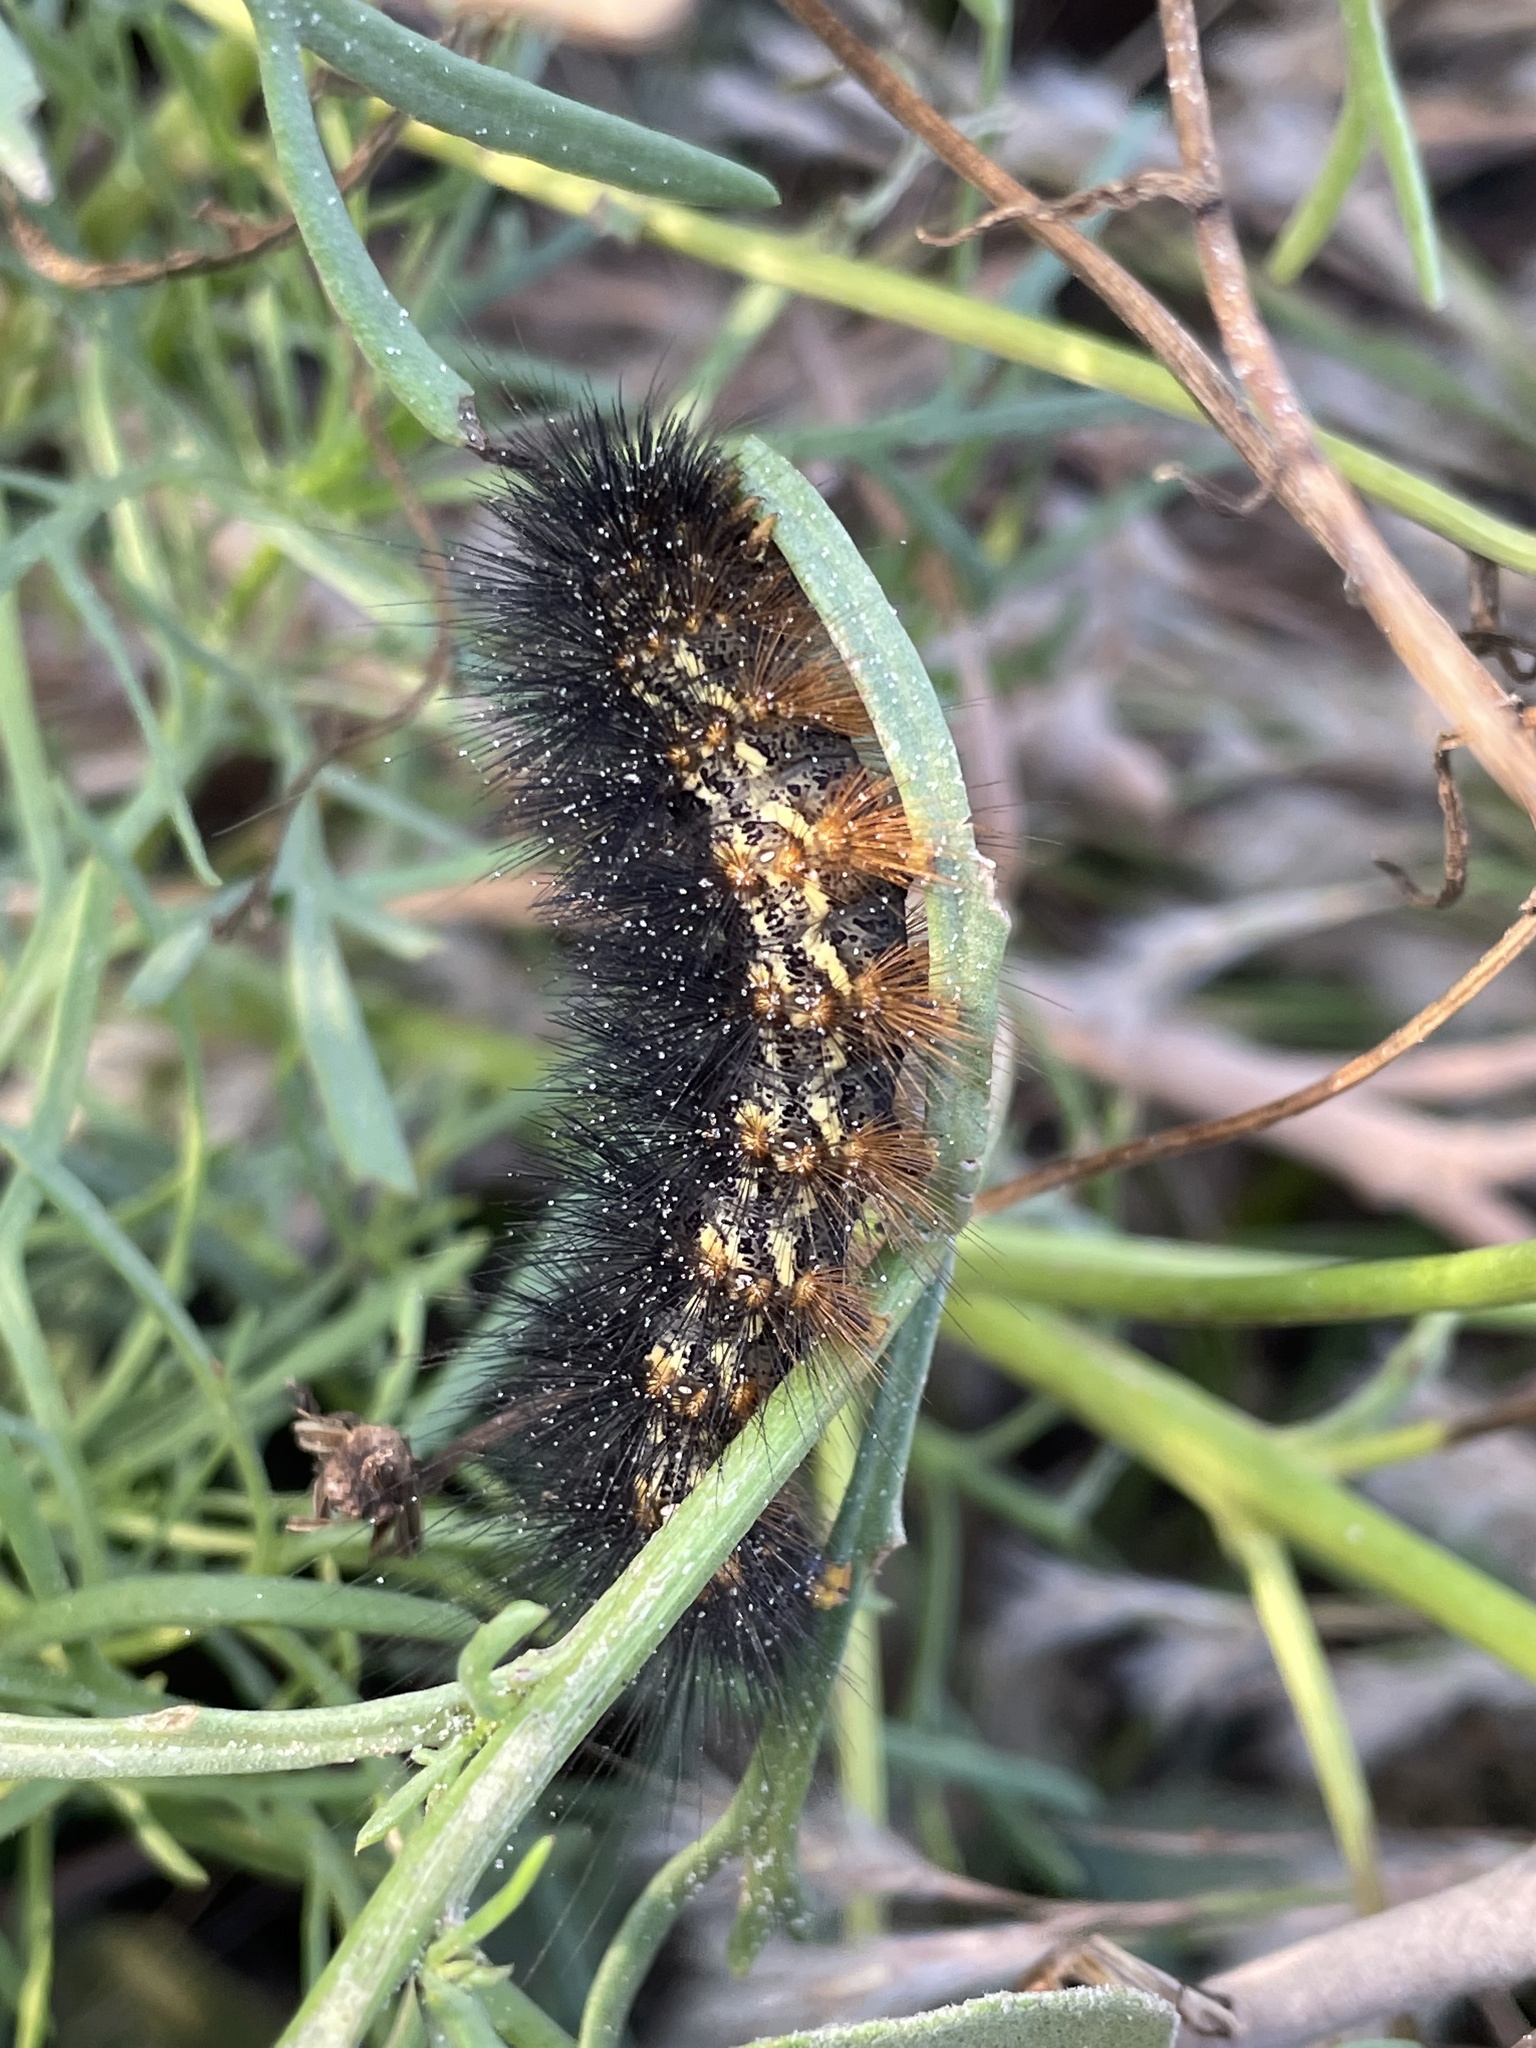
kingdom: Animalia
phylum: Arthropoda
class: Insecta
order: Lepidoptera
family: Erebidae
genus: Estigmene
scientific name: Estigmene acrea
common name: Salt marsh moth
